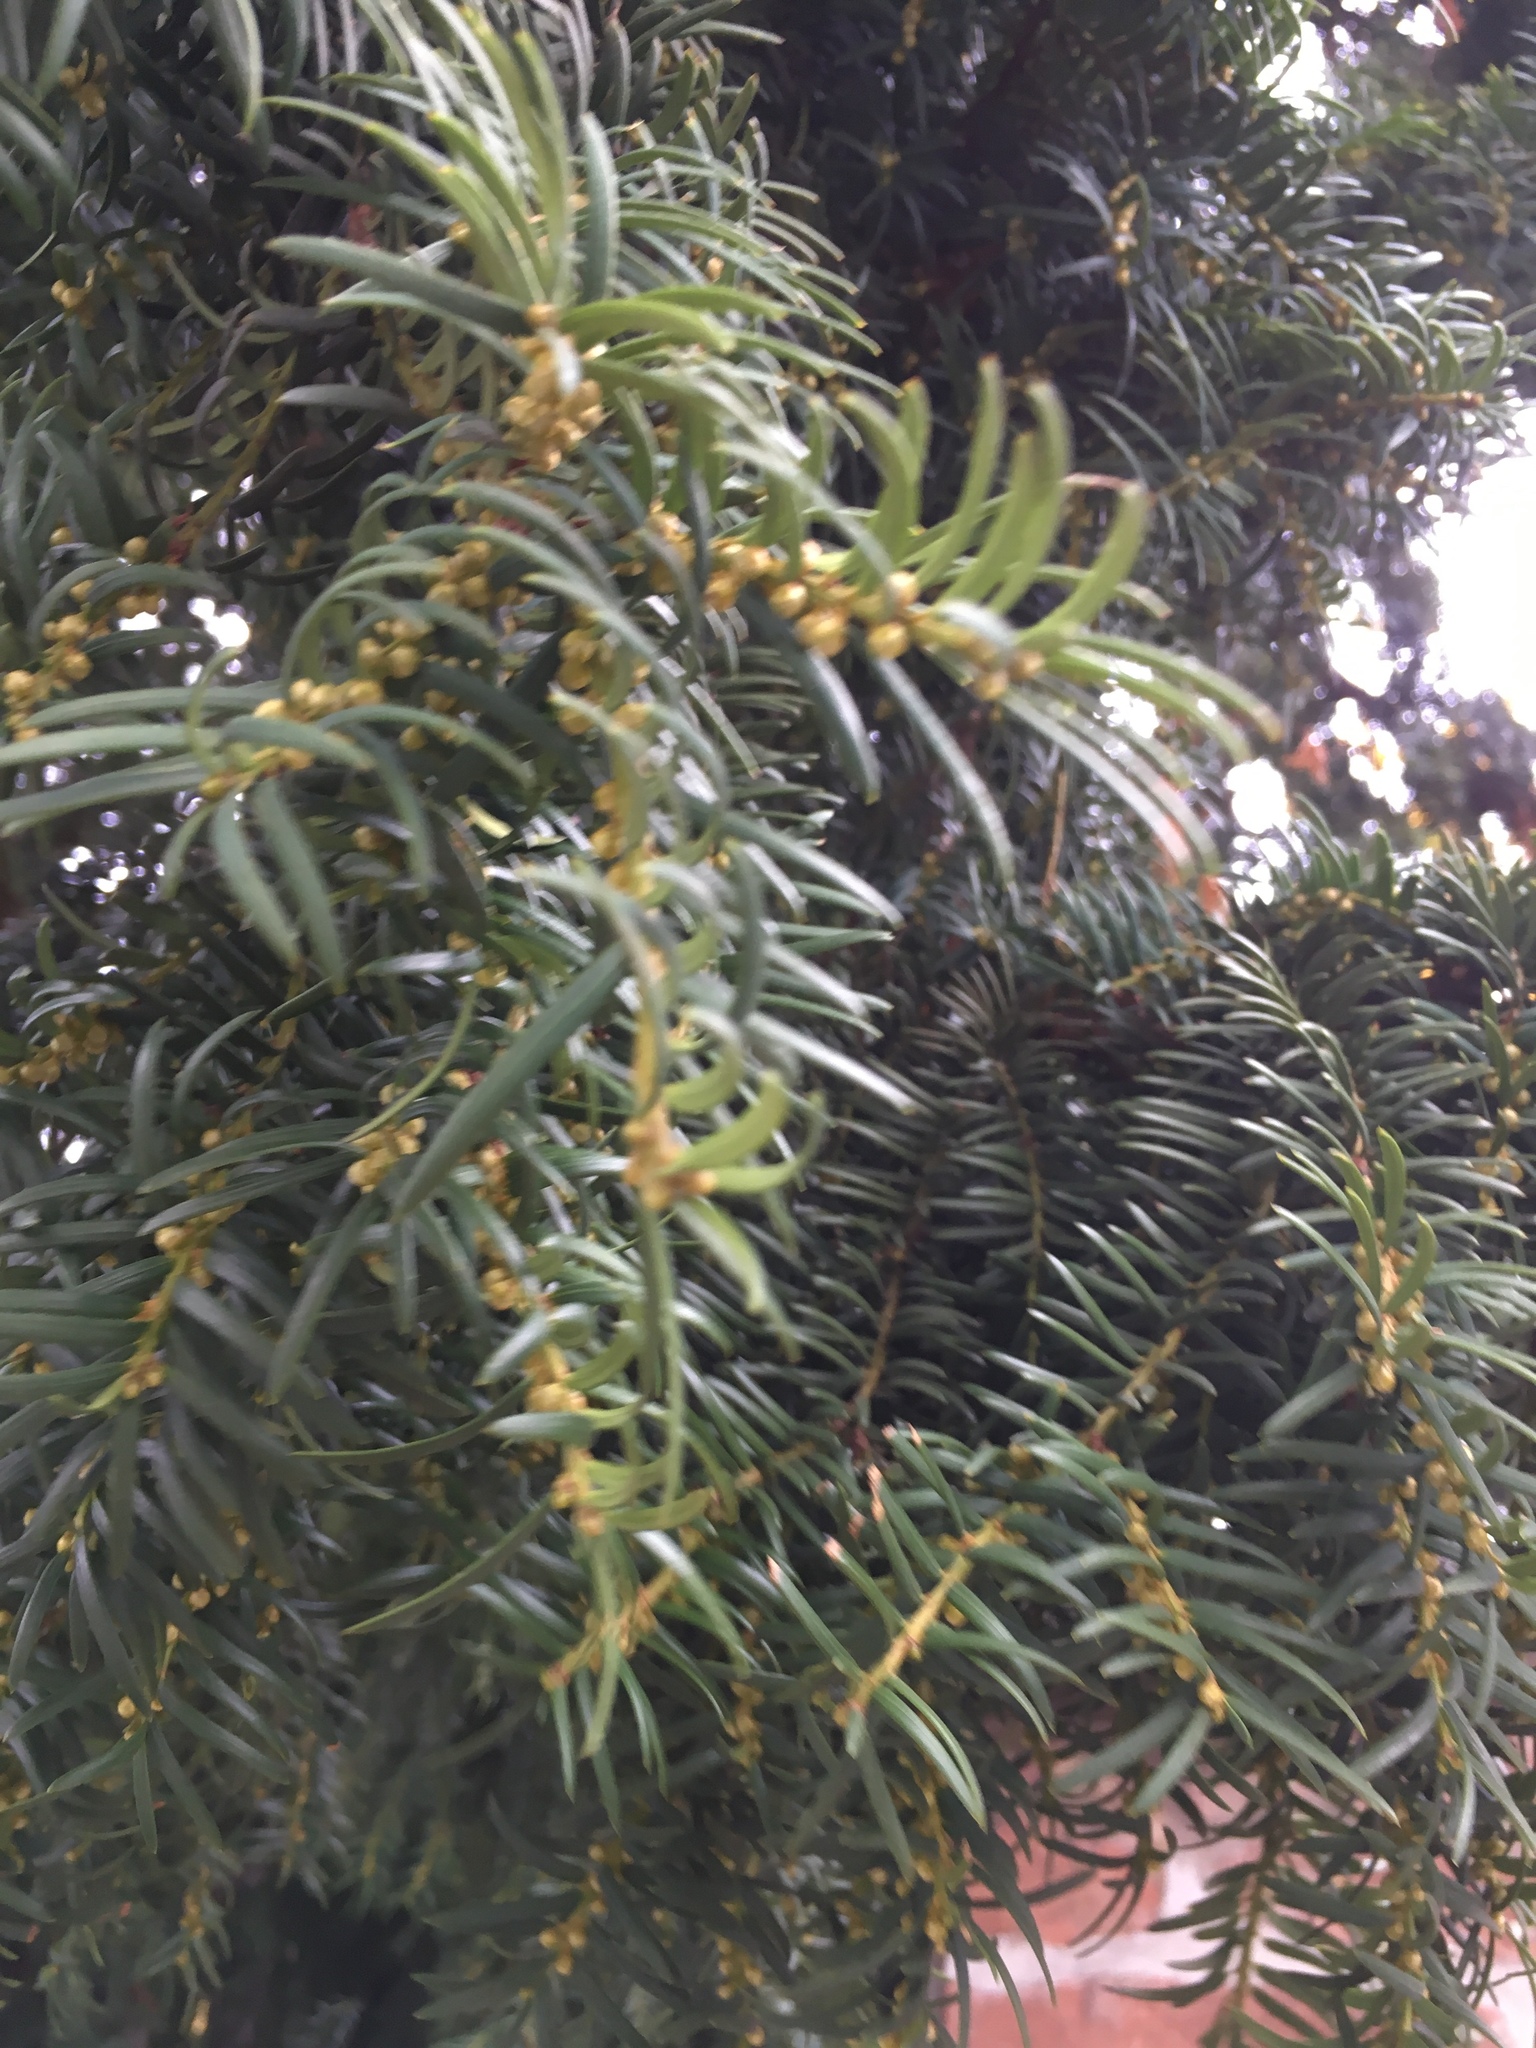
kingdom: Plantae
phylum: Tracheophyta
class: Pinopsida
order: Pinales
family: Taxaceae
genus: Taxus
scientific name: Taxus baccata
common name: Yew
